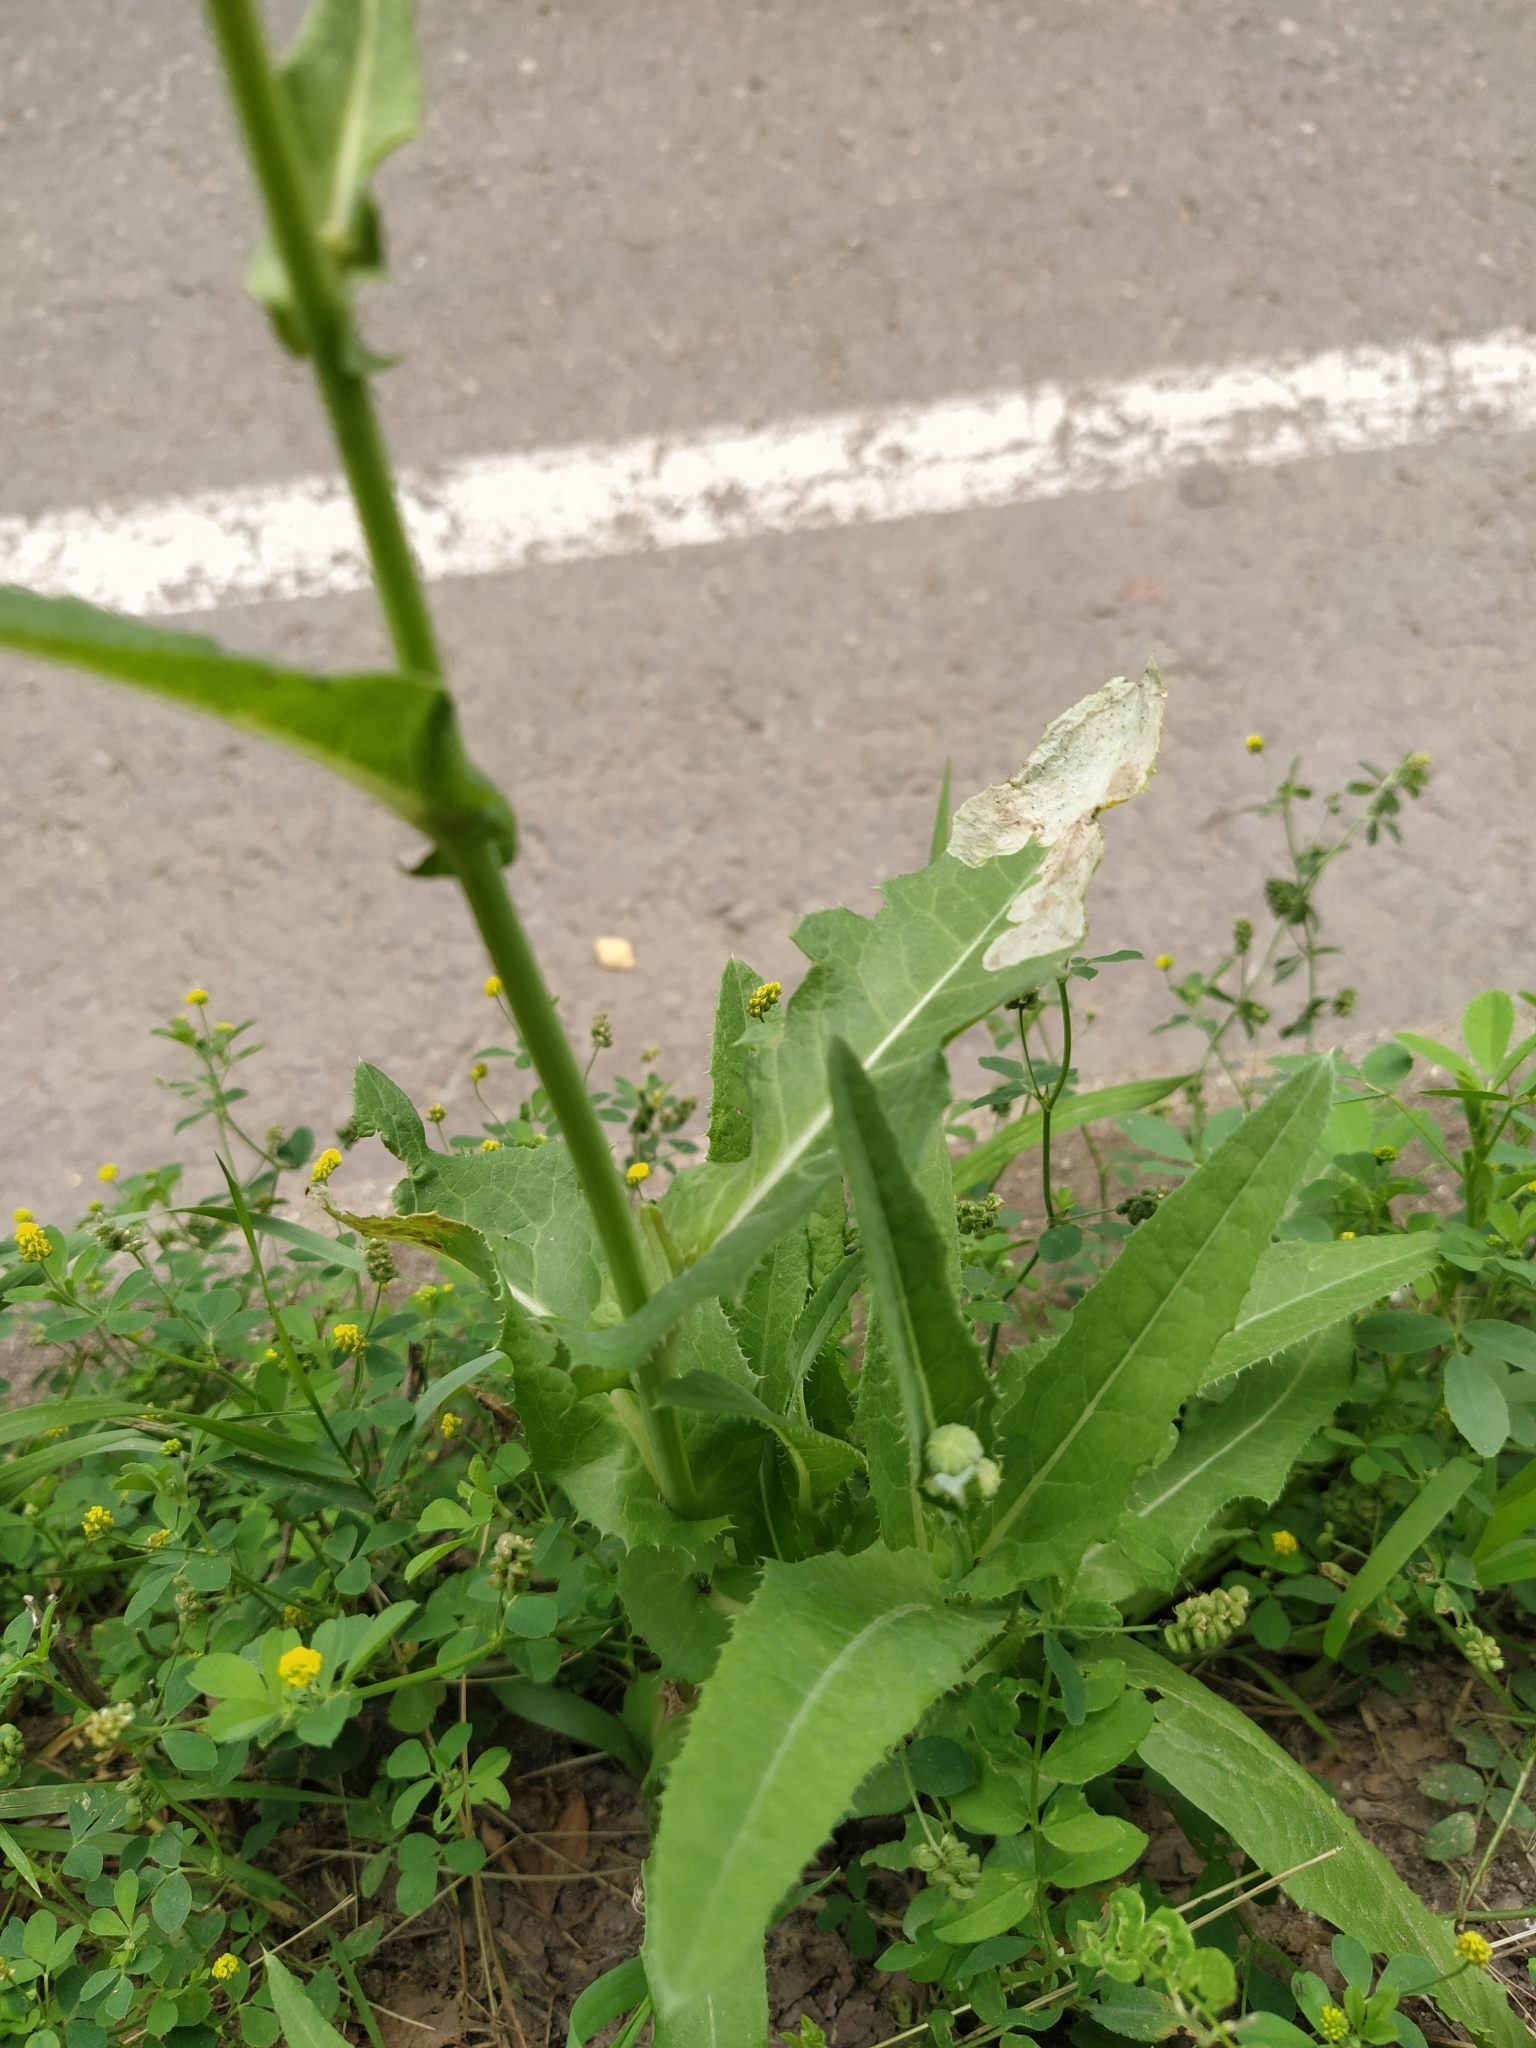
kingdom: Plantae
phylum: Tracheophyta
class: Magnoliopsida
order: Asterales
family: Asteraceae
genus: Sonchus
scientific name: Sonchus arvensis
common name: Perennial sow-thistle
